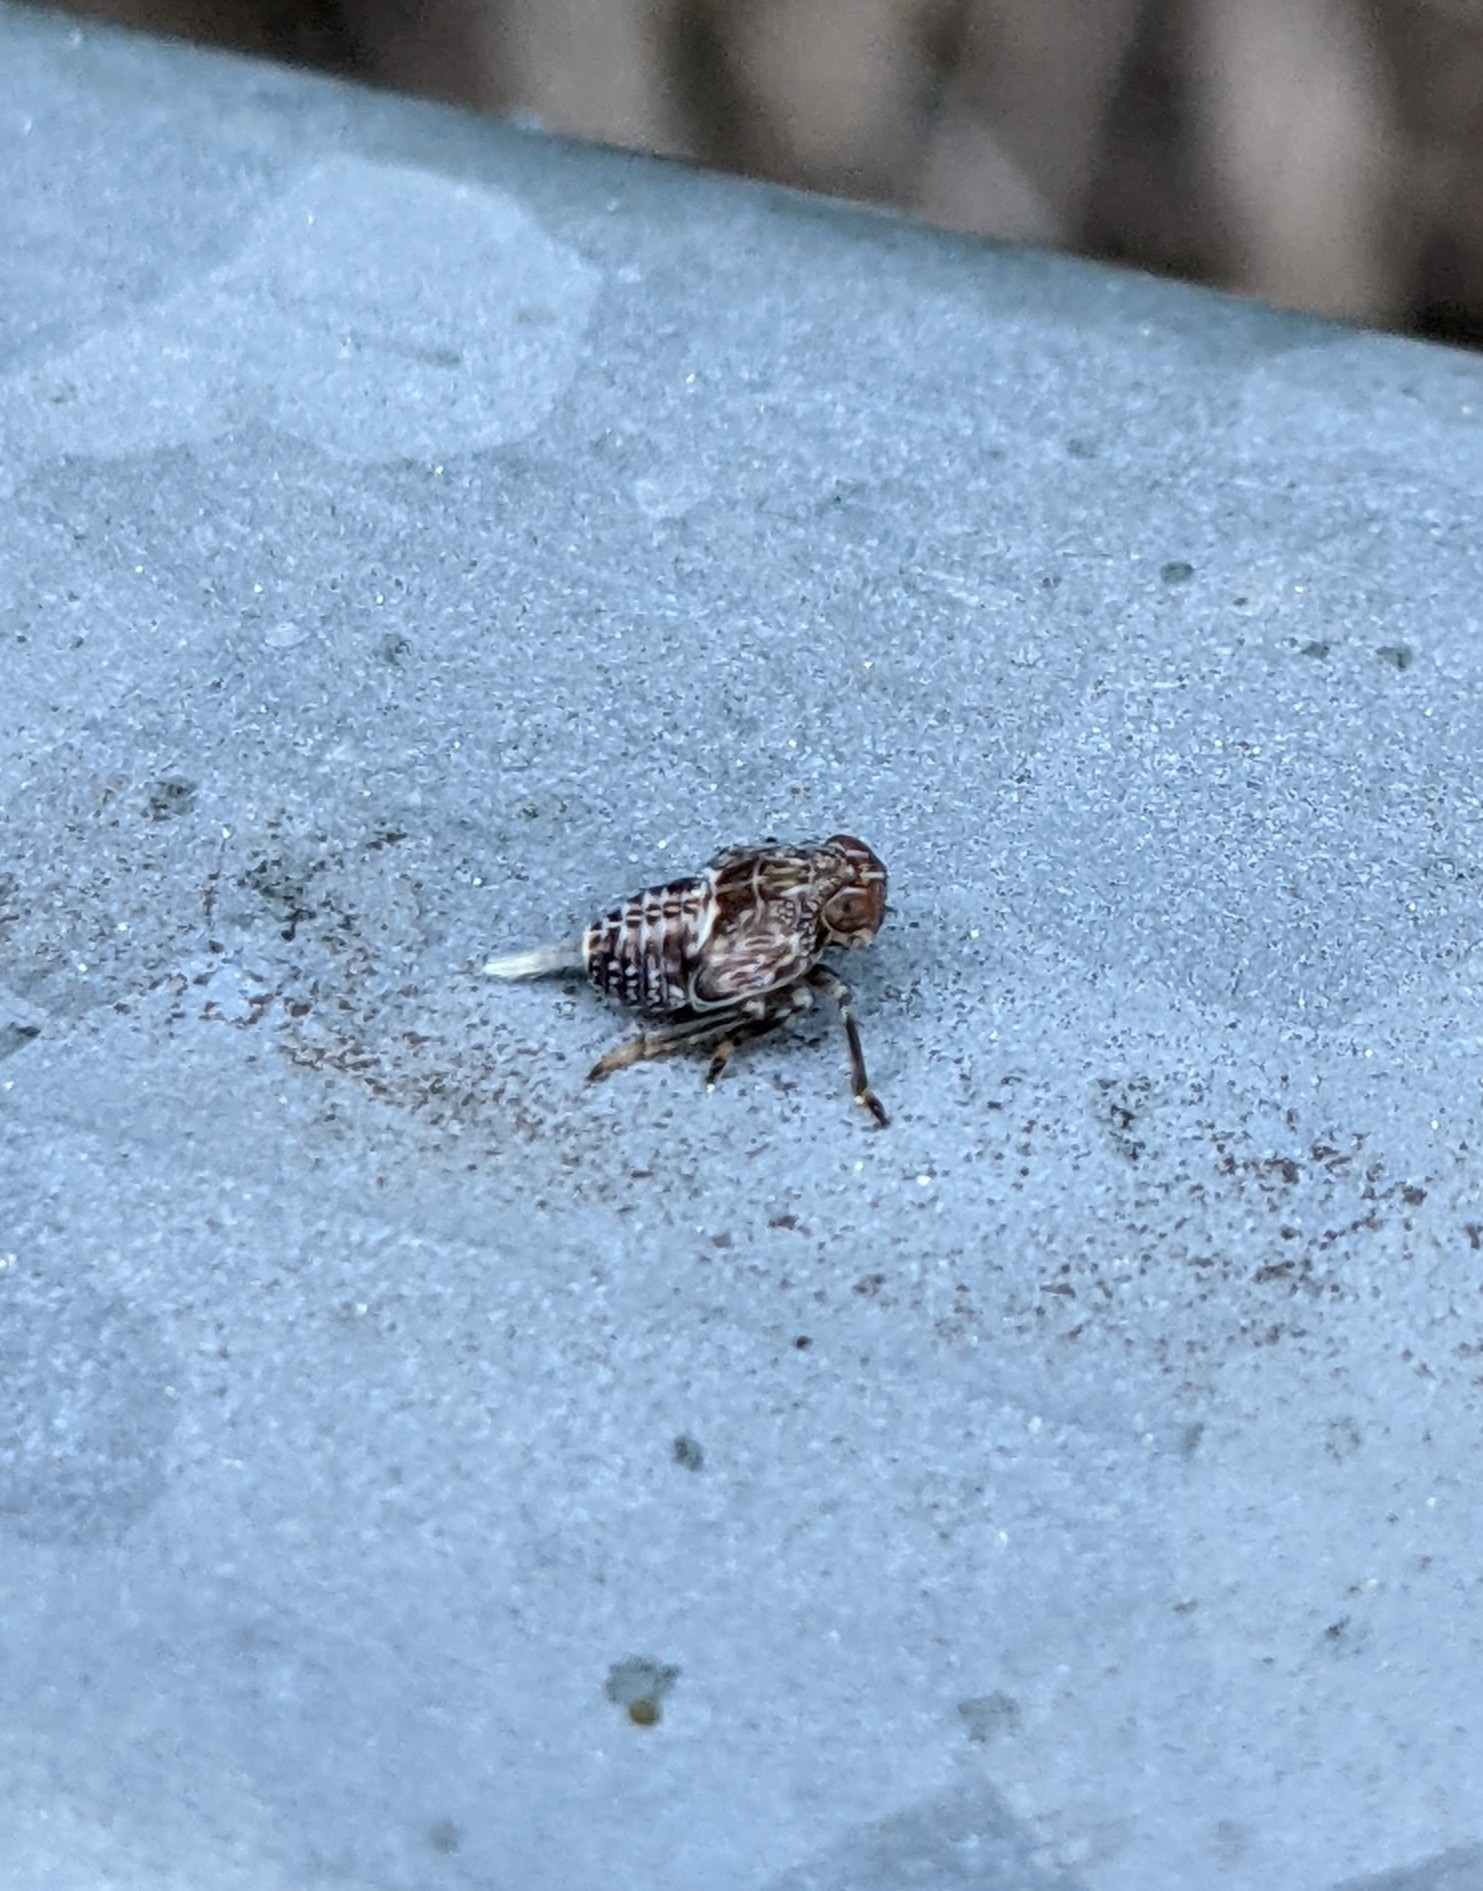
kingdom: Animalia
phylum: Arthropoda
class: Insecta
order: Hemiptera
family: Issidae
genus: Issus
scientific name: Issus coleoptratus
